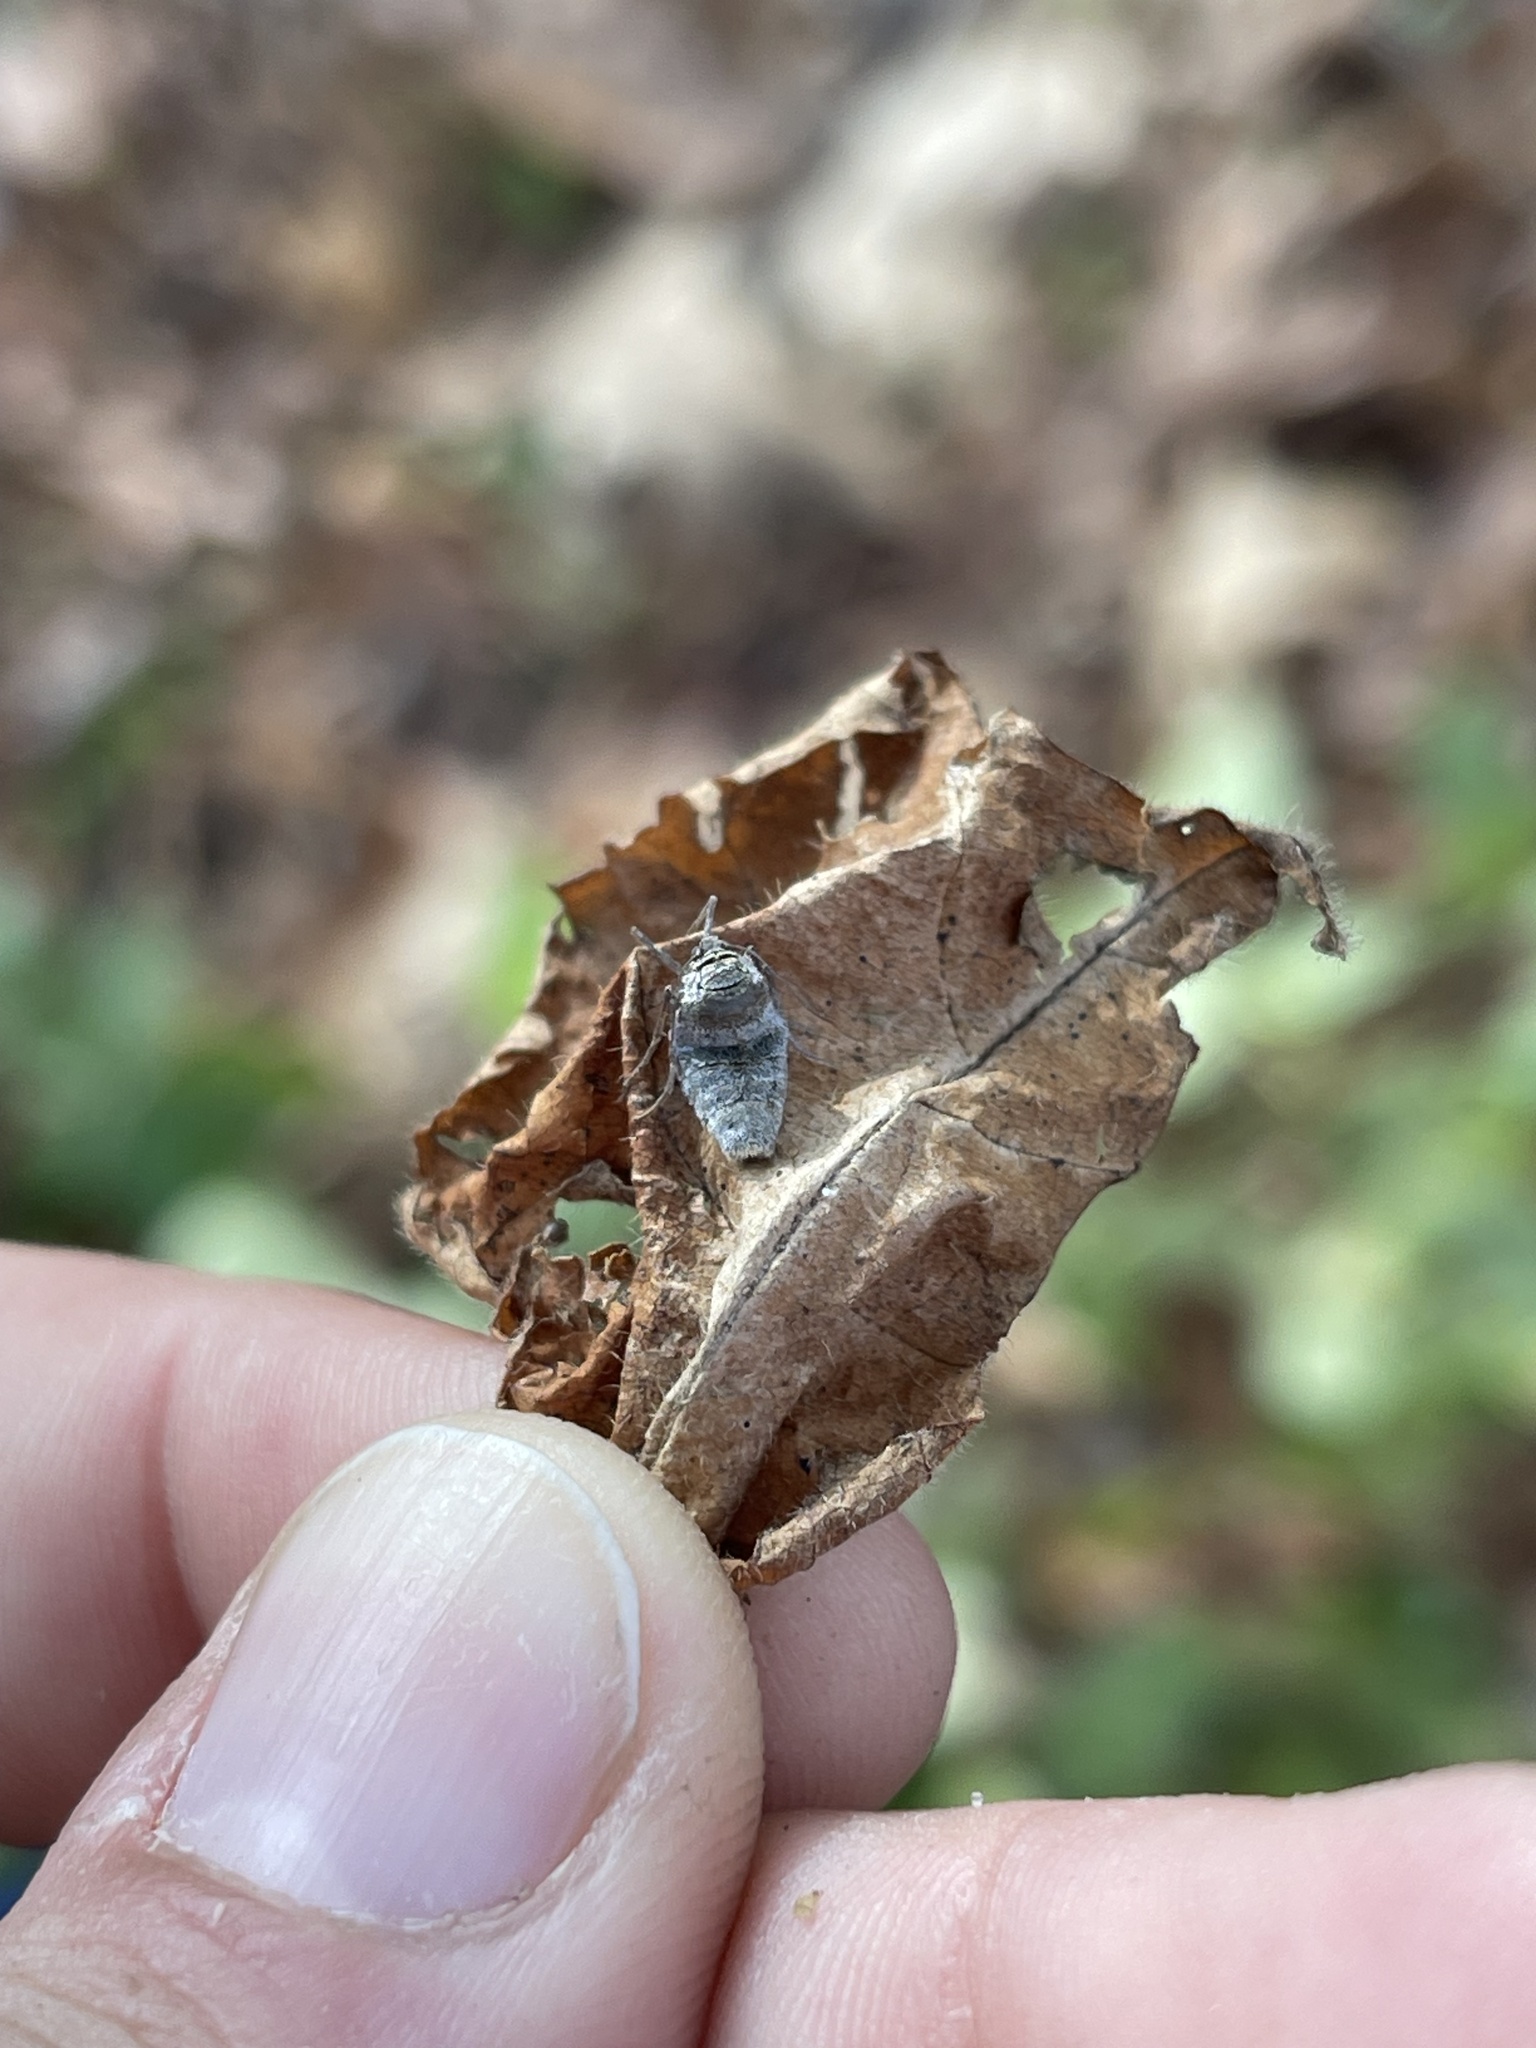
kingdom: Animalia
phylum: Arthropoda
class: Insecta
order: Lepidoptera
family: Geometridae
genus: Alsophila
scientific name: Alsophila pometaria
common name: Fall cankerworm
